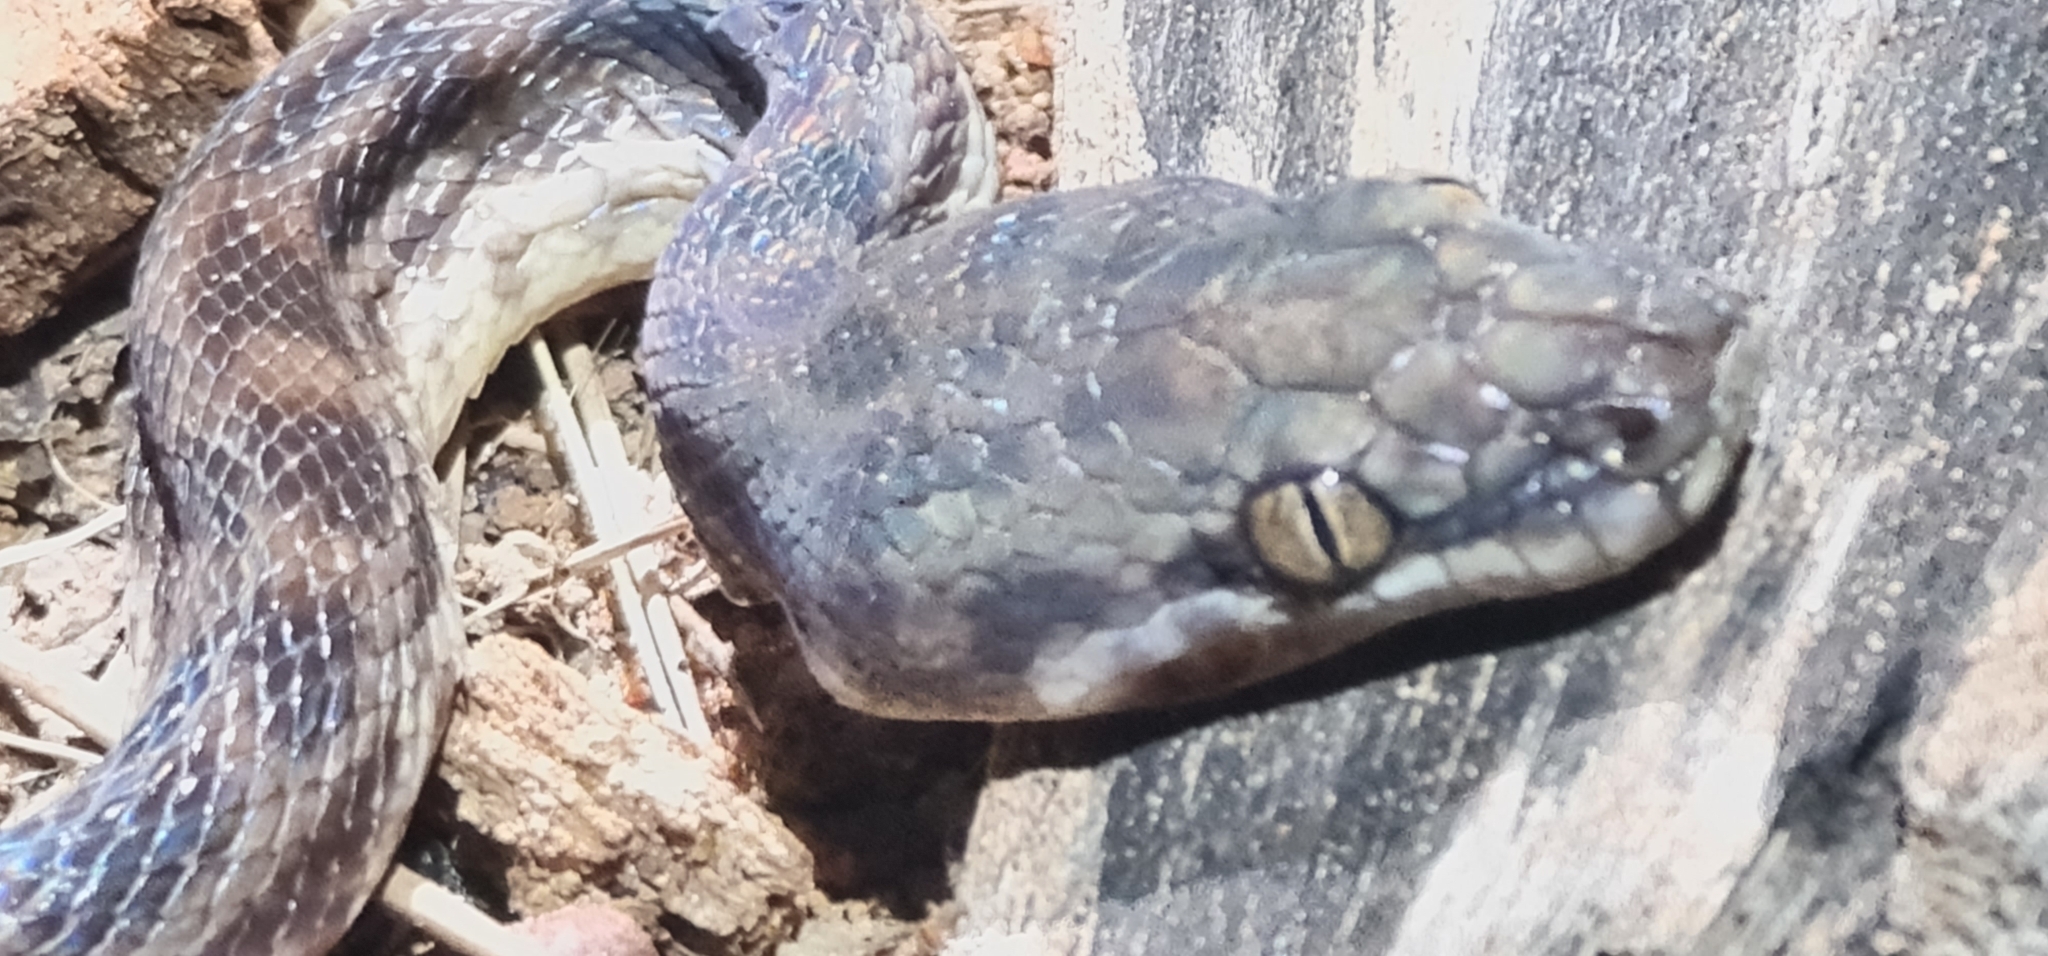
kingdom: Animalia
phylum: Chordata
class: Squamata
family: Pythonidae
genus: Antaresia
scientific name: Antaresia childreni
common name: Children's python
